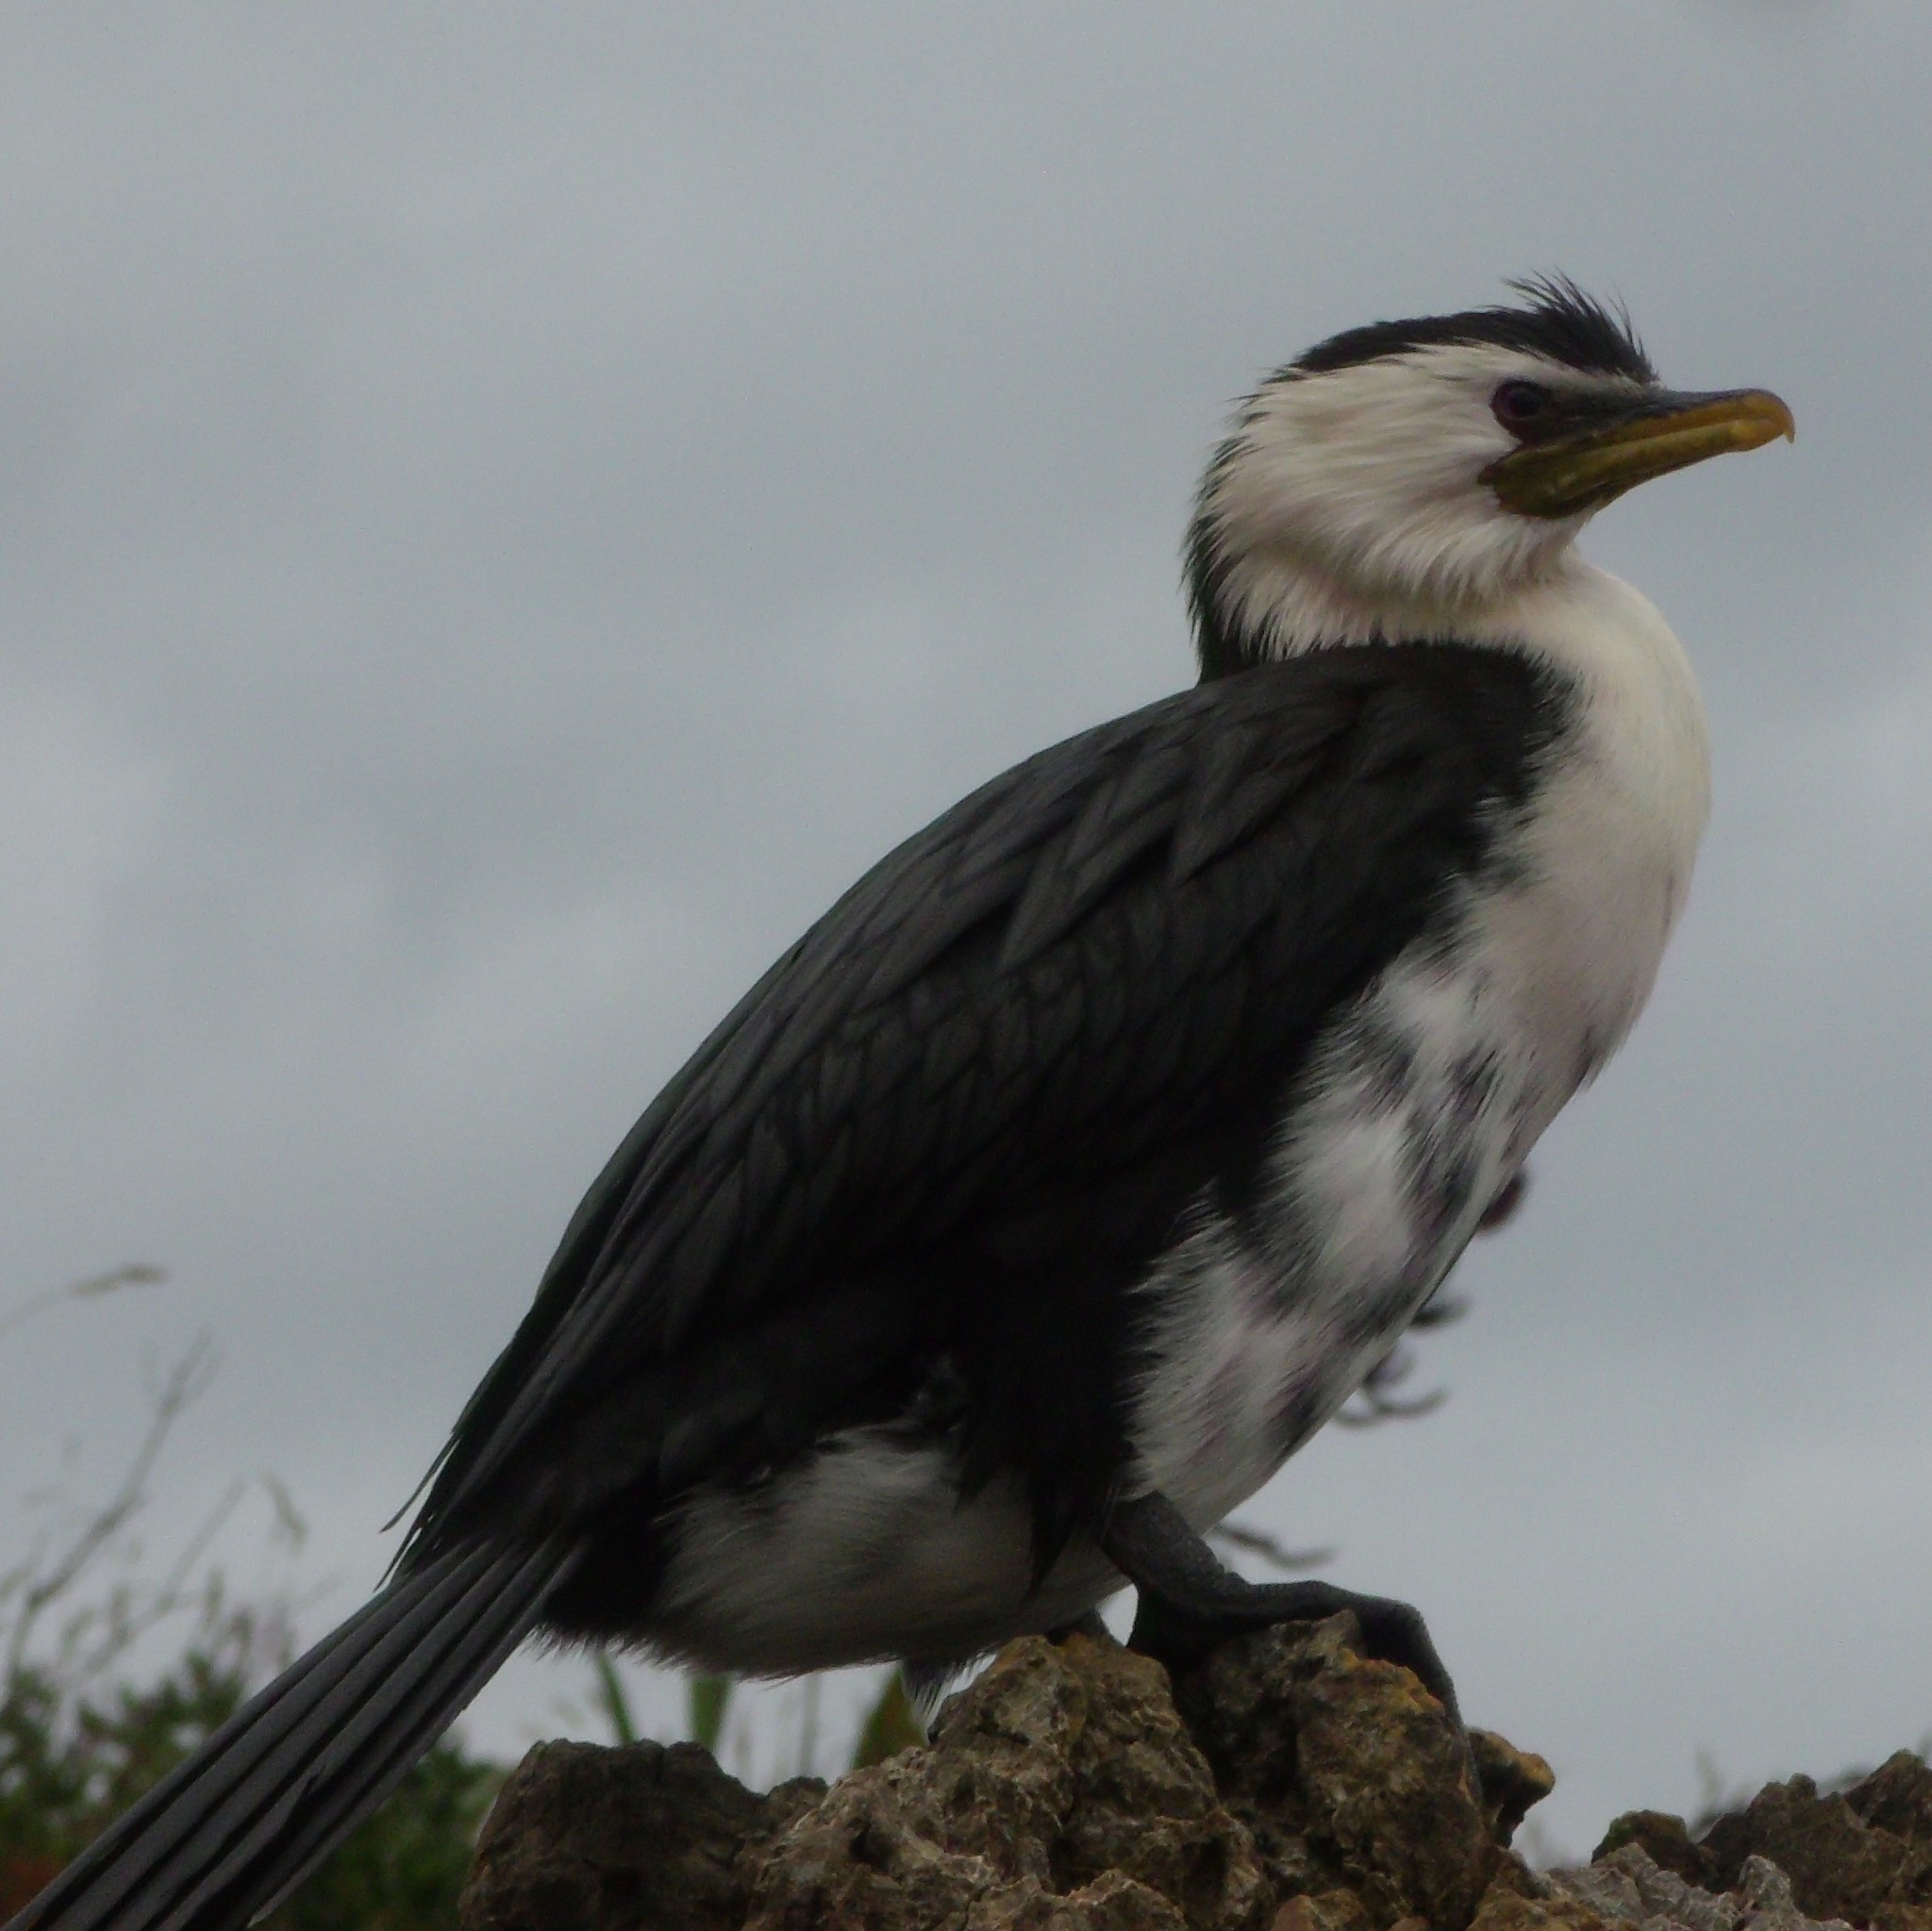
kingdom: Animalia
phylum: Chordata
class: Aves
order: Suliformes
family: Phalacrocoracidae
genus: Microcarbo
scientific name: Microcarbo melanoleucos
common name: Little pied cormorant
